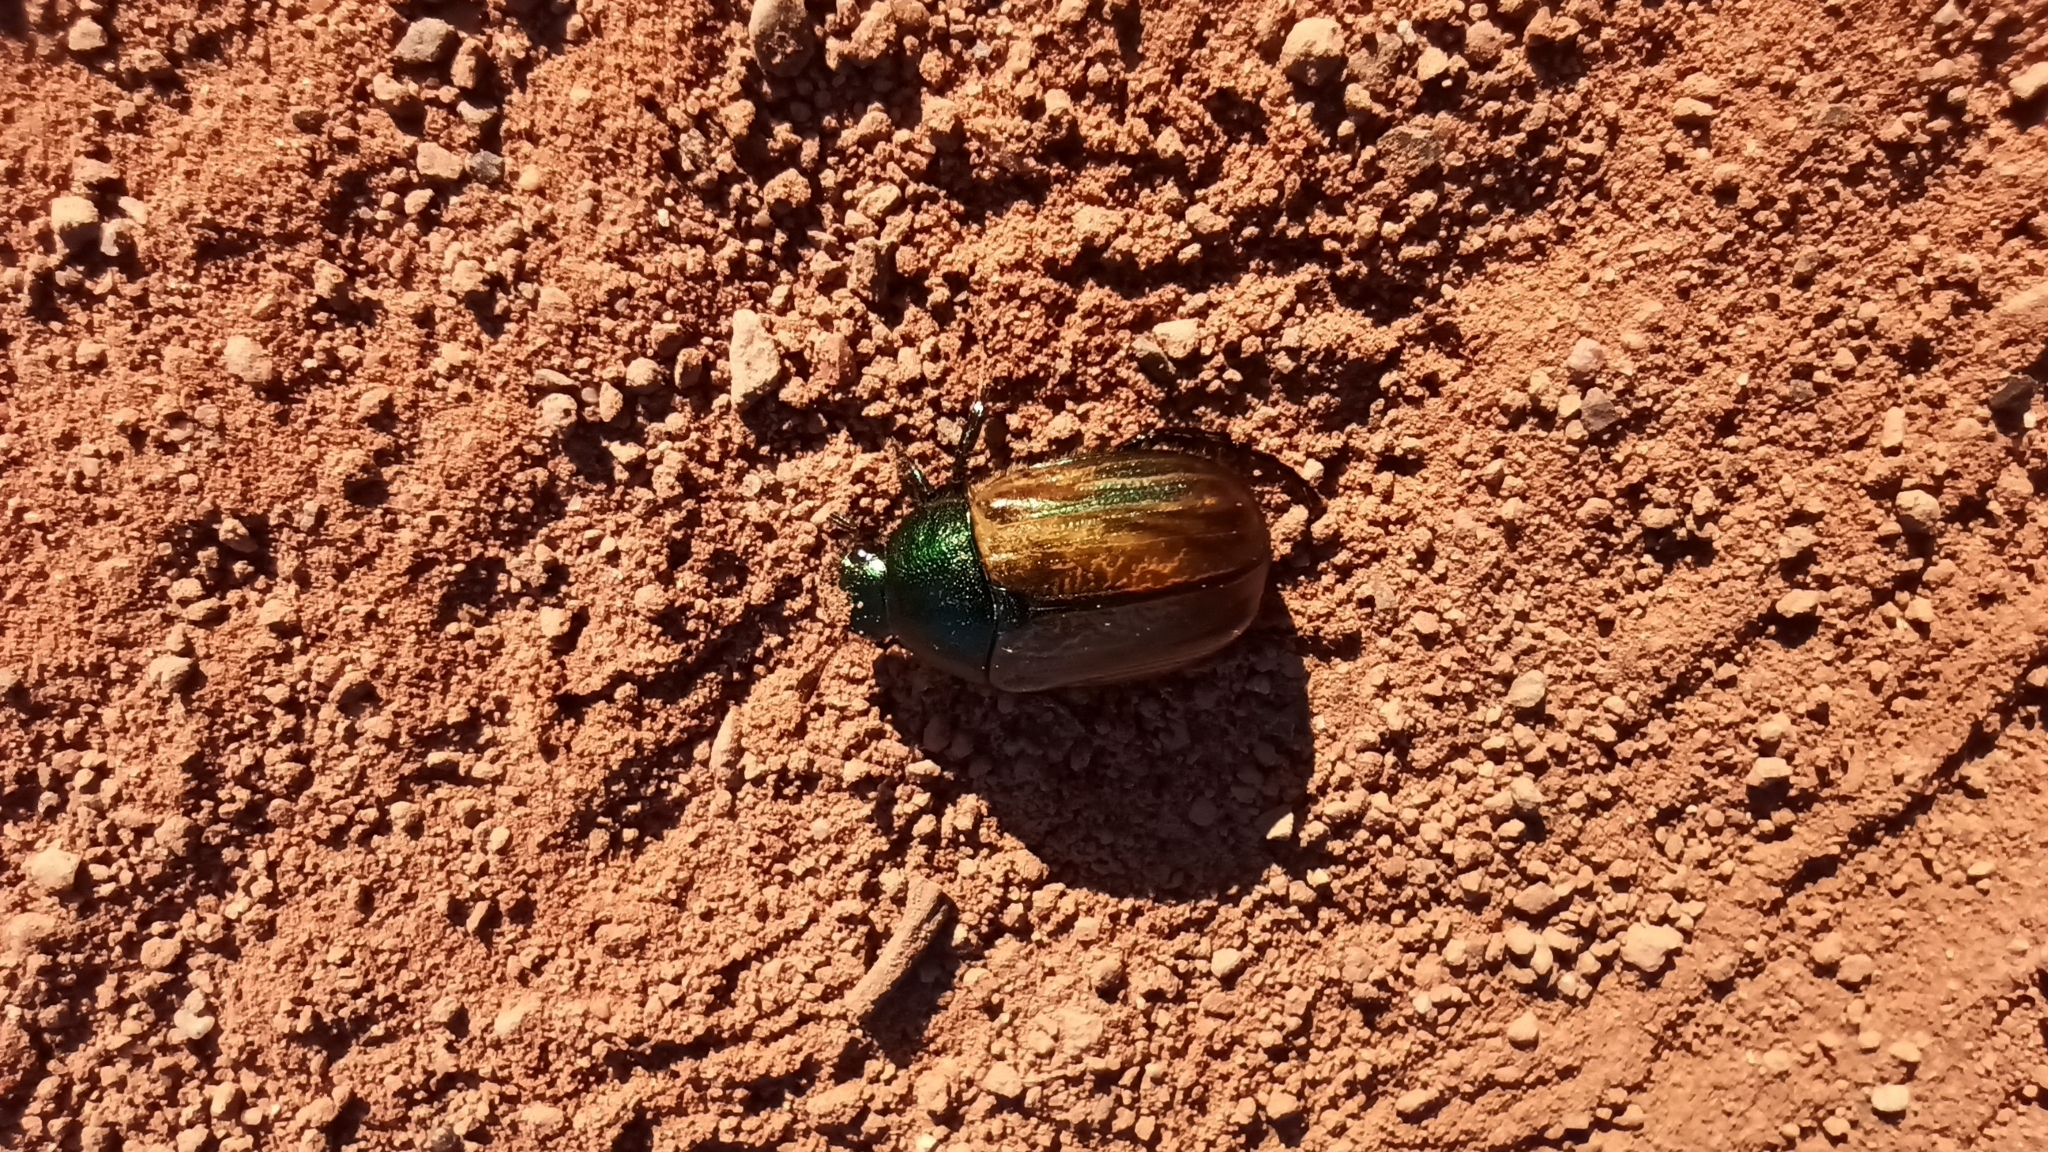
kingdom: Animalia
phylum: Arthropoda
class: Insecta
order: Coleoptera
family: Scarabaeidae
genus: Anomala
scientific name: Anomala dubia
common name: Dune chafer
